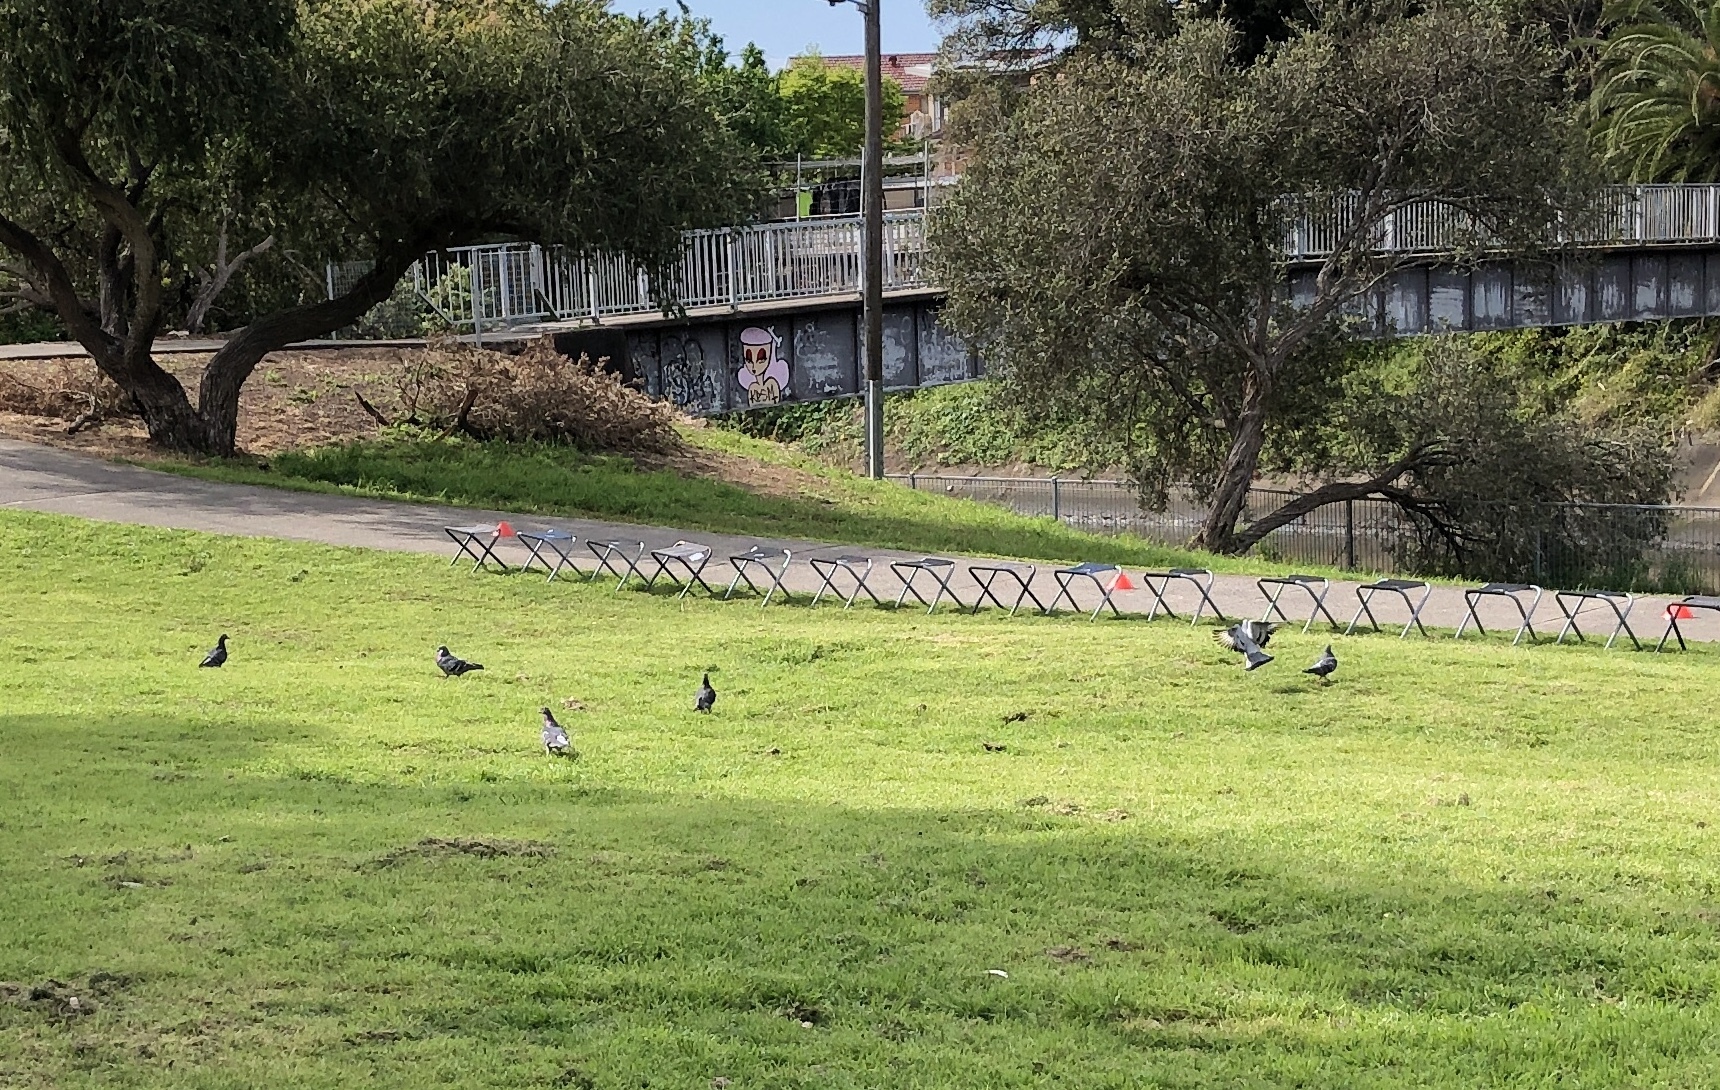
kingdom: Animalia
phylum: Chordata
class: Aves
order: Columbiformes
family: Columbidae
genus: Columba
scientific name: Columba livia
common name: Rock pigeon
